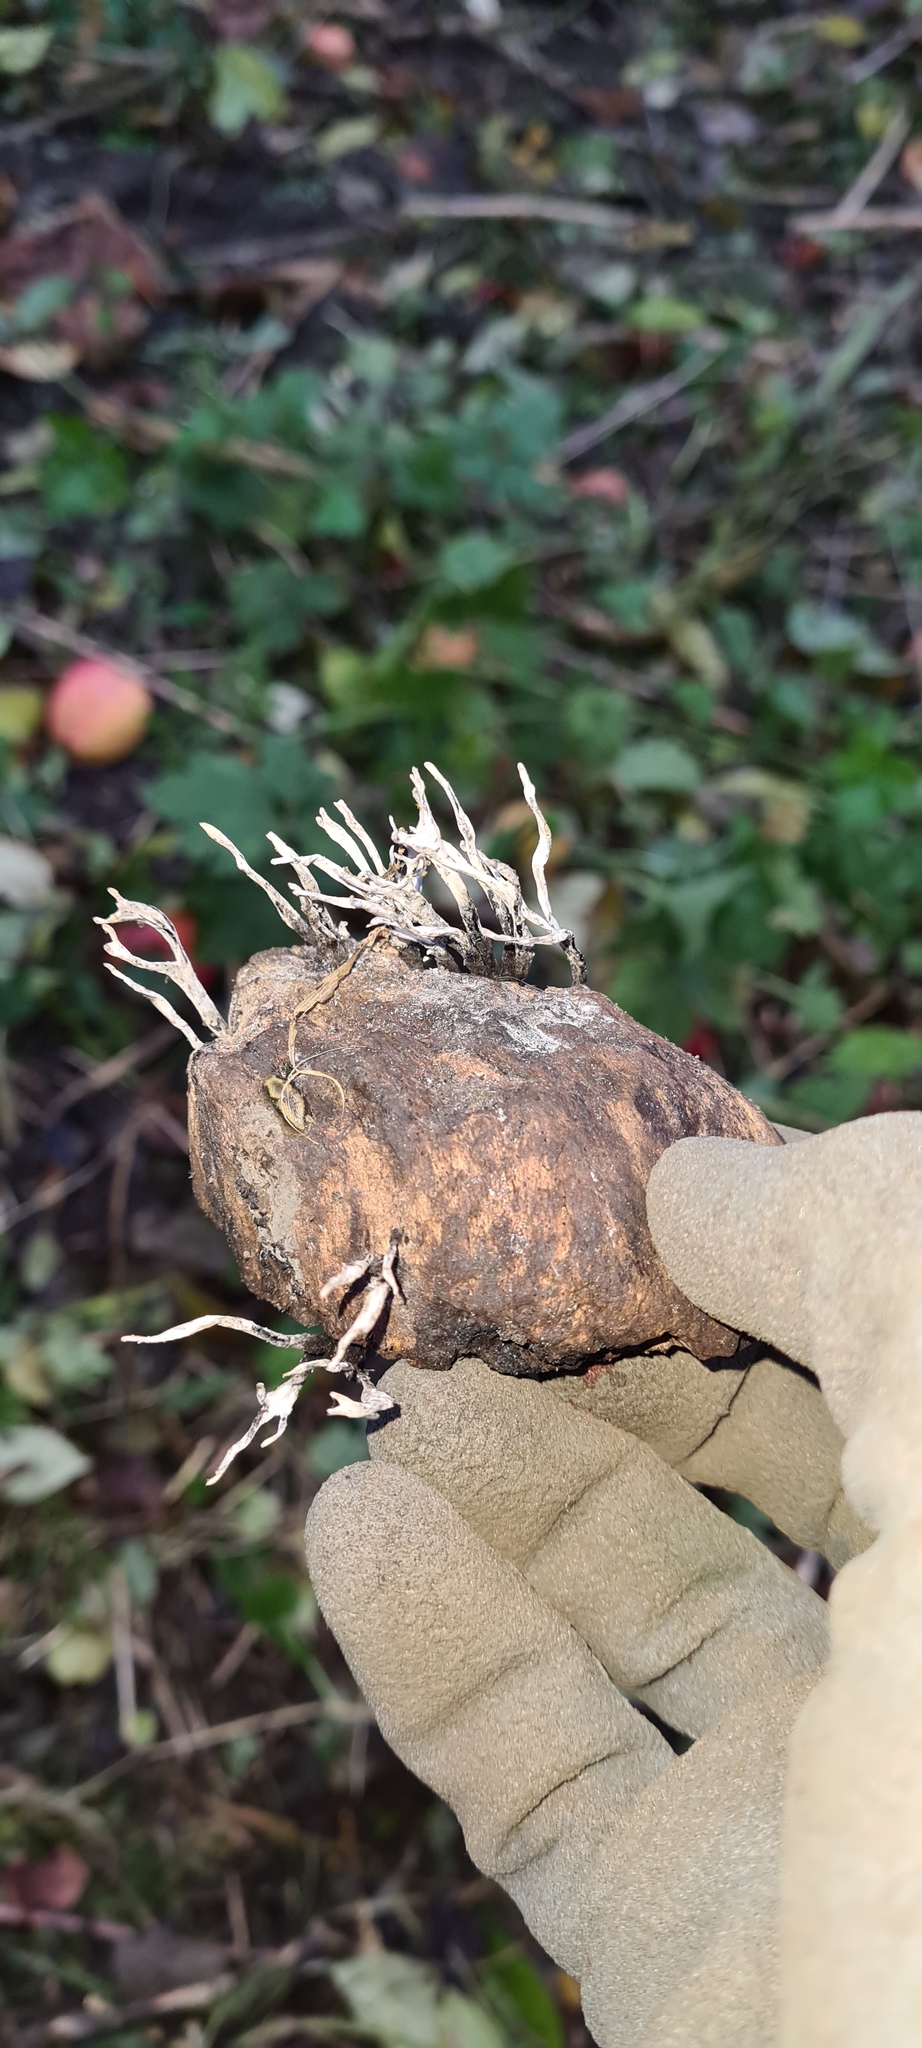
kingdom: Fungi
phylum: Ascomycota
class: Sordariomycetes
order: Xylariales
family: Xylariaceae
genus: Xylaria
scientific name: Xylaria hypoxylon
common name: Candle-snuff fungus
